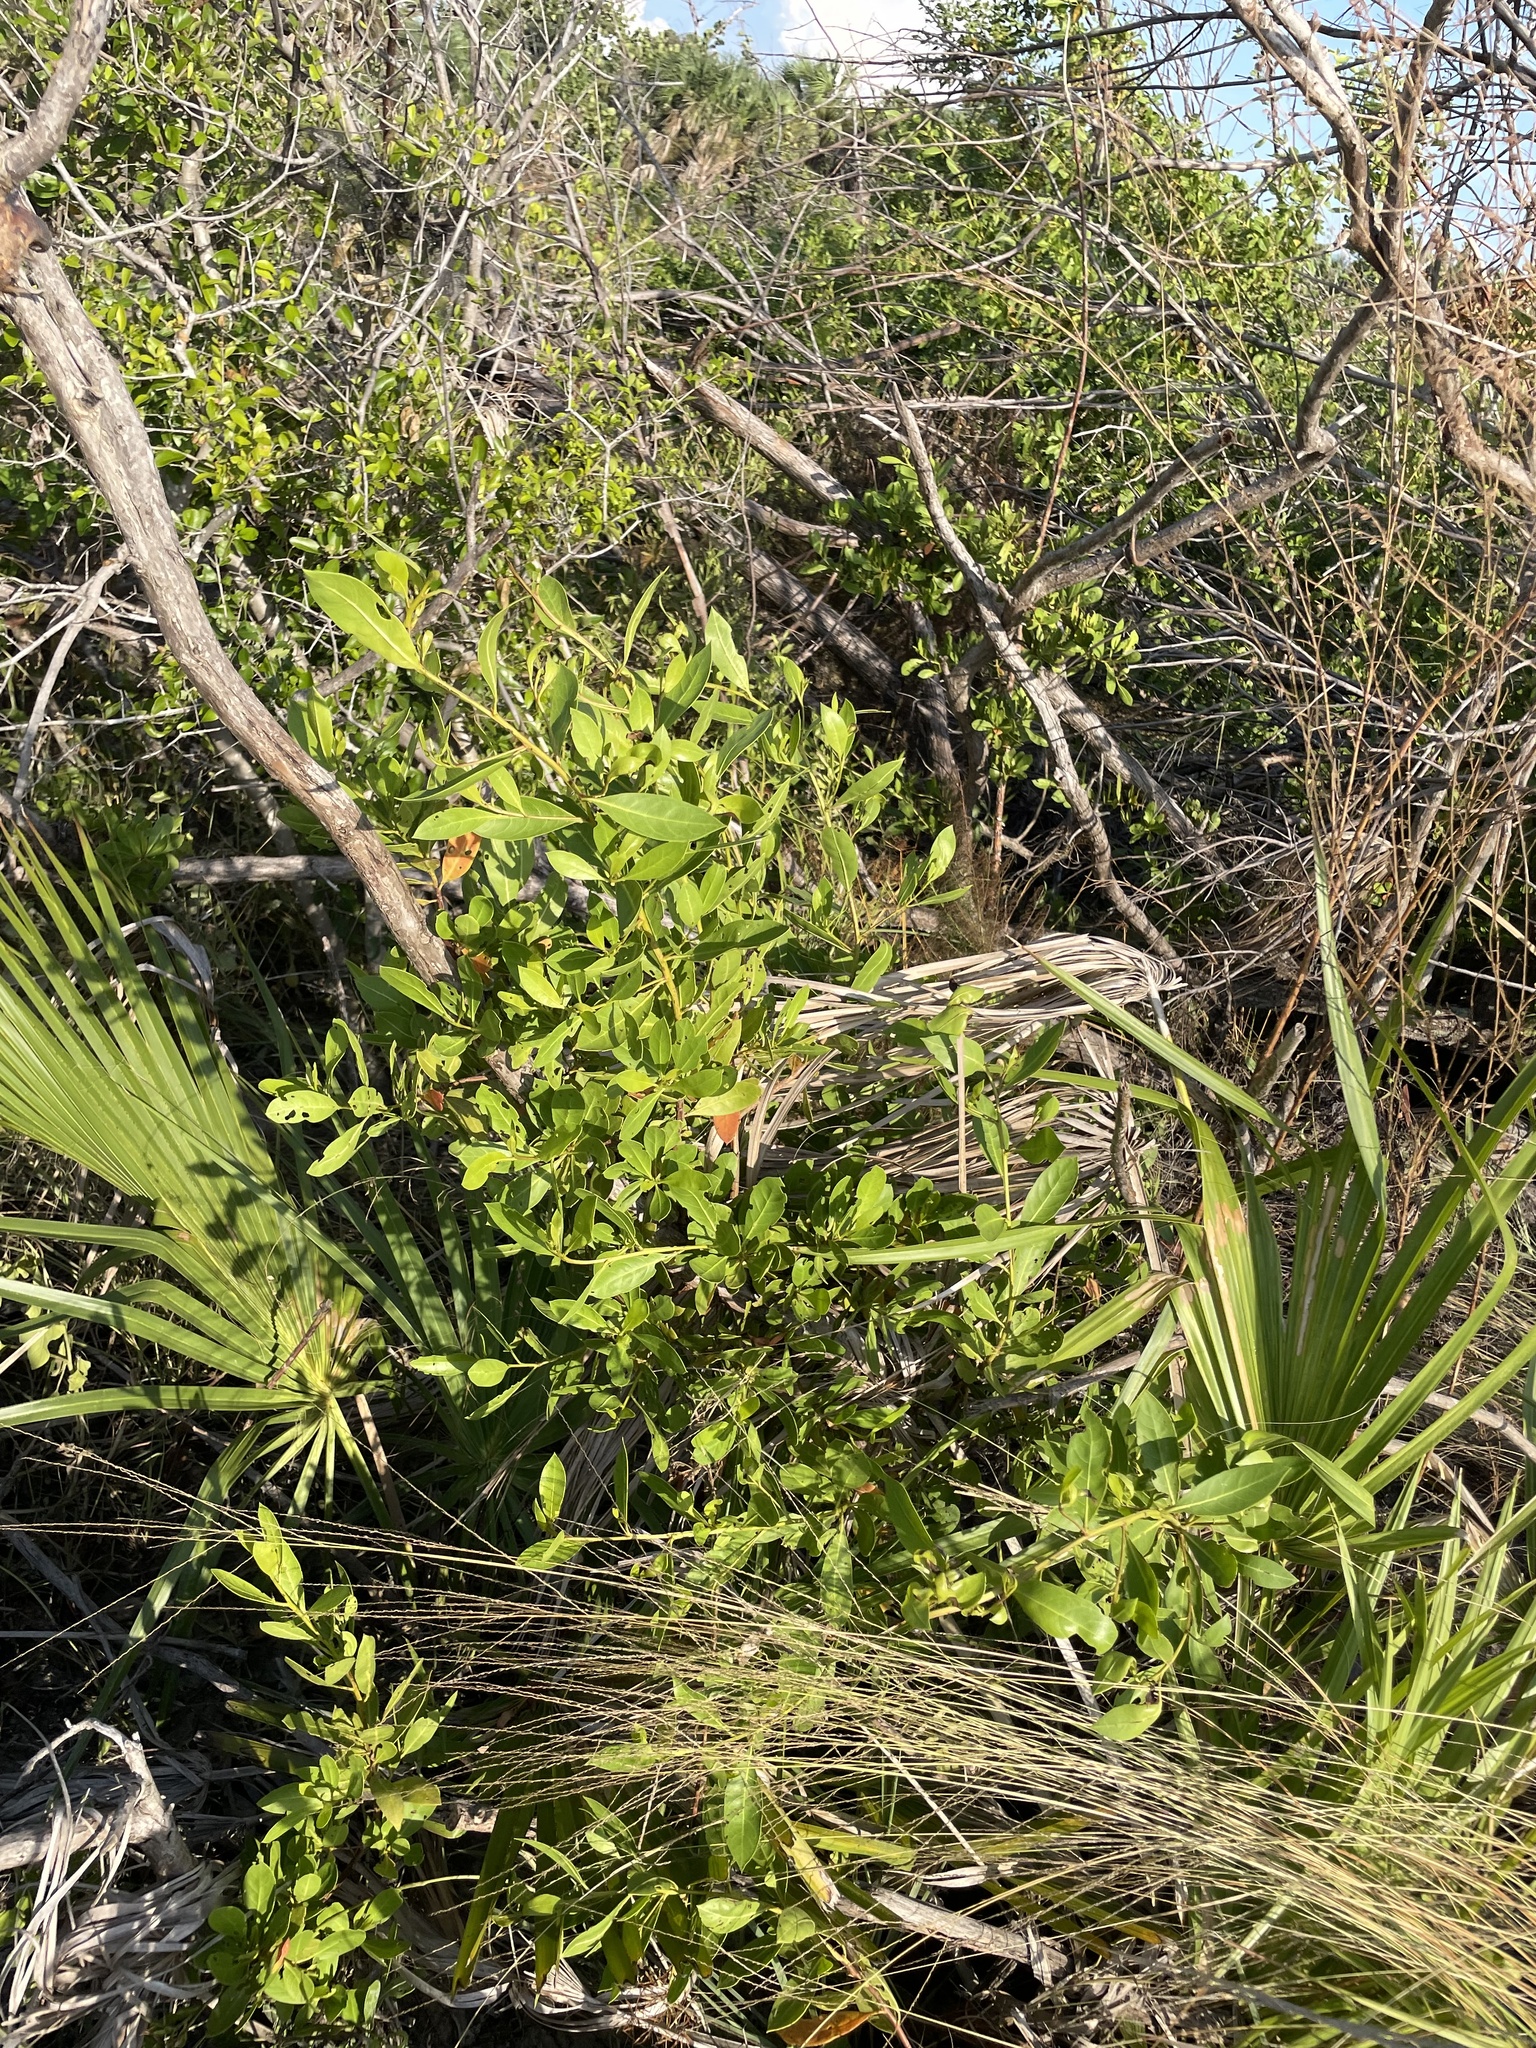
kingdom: Plantae
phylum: Tracheophyta
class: Magnoliopsida
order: Myrtales
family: Combretaceae
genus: Conocarpus
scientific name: Conocarpus erectus
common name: Button mangrove
